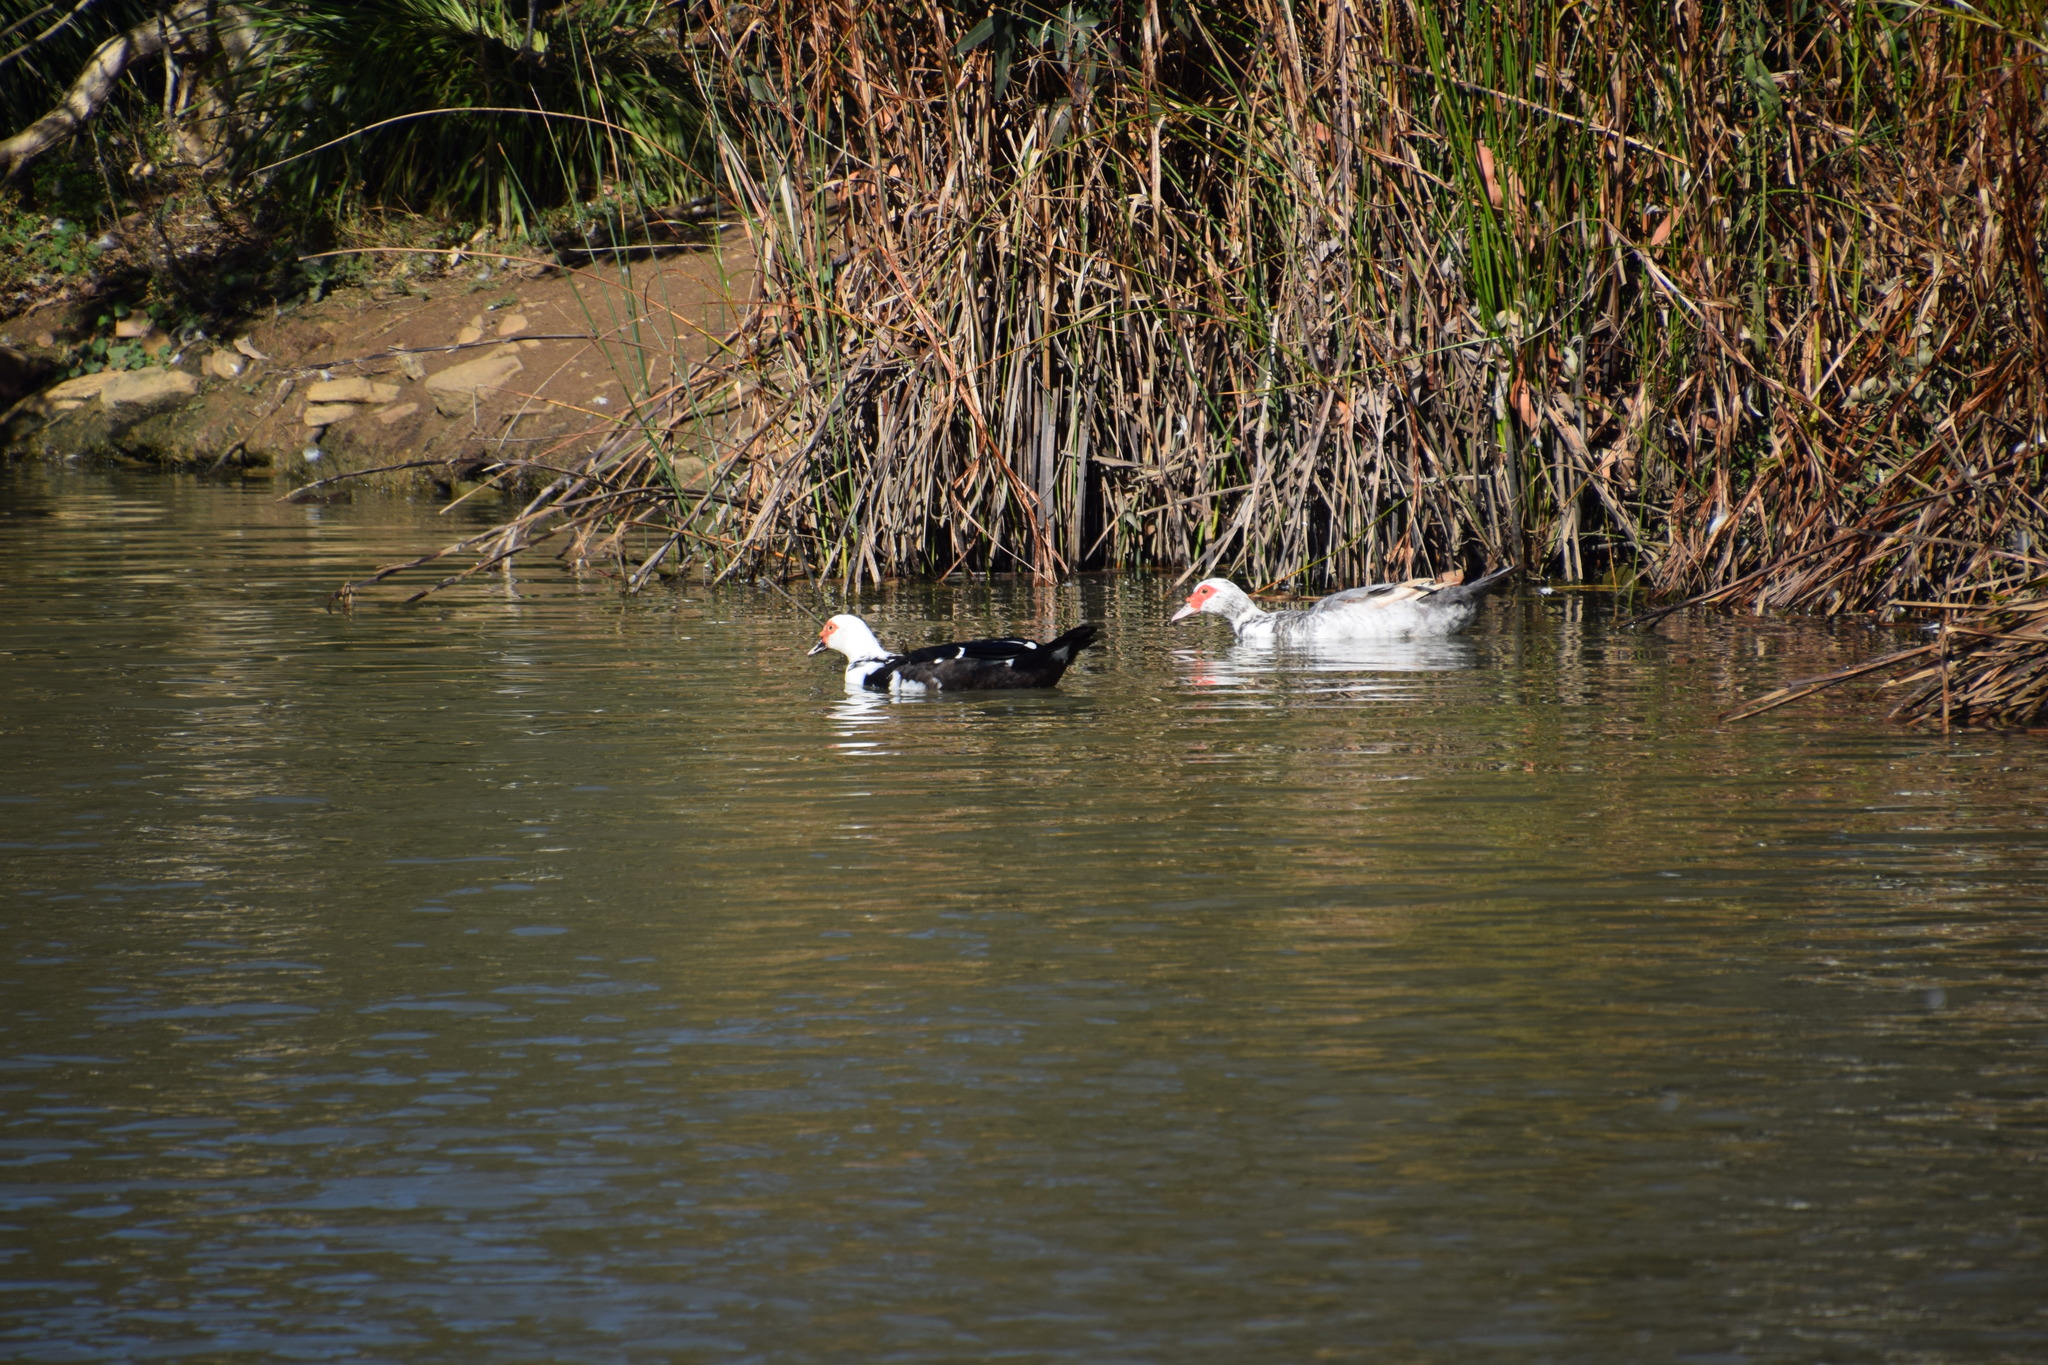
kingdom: Animalia
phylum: Chordata
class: Aves
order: Anseriformes
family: Anatidae
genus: Cairina
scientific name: Cairina moschata
